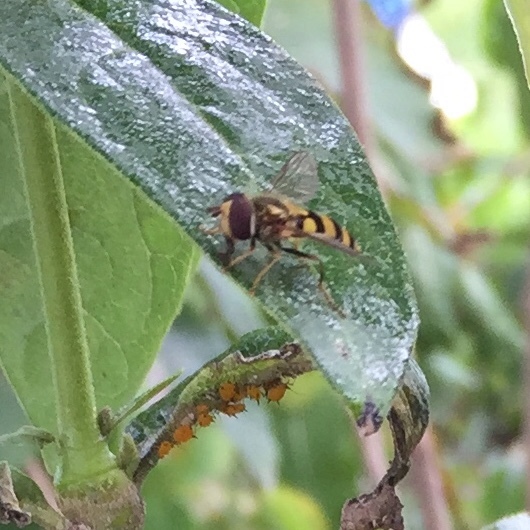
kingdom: Animalia
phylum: Arthropoda
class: Insecta
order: Diptera
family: Syrphidae
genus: Eupeodes
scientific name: Eupeodes
